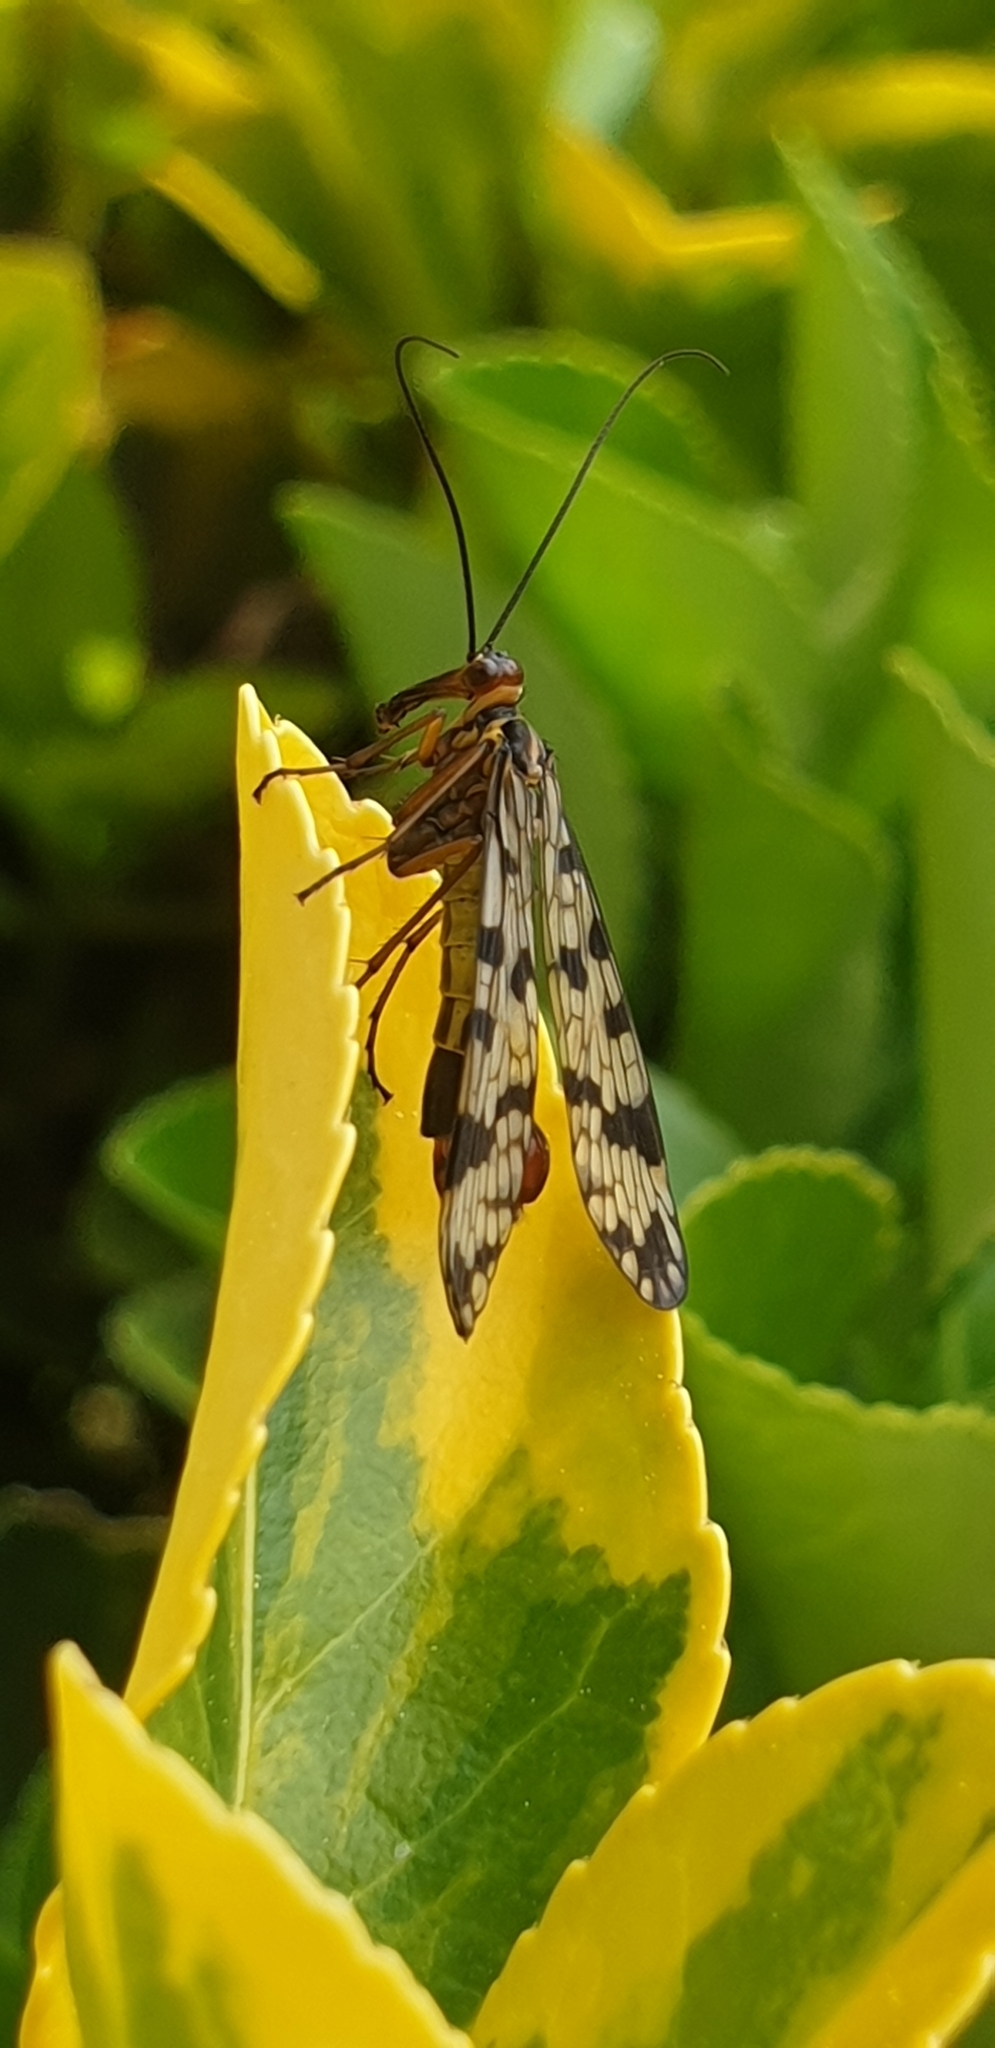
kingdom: Animalia
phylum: Arthropoda
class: Insecta
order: Mecoptera
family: Panorpidae
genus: Panorpa
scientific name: Panorpa meridionalis
